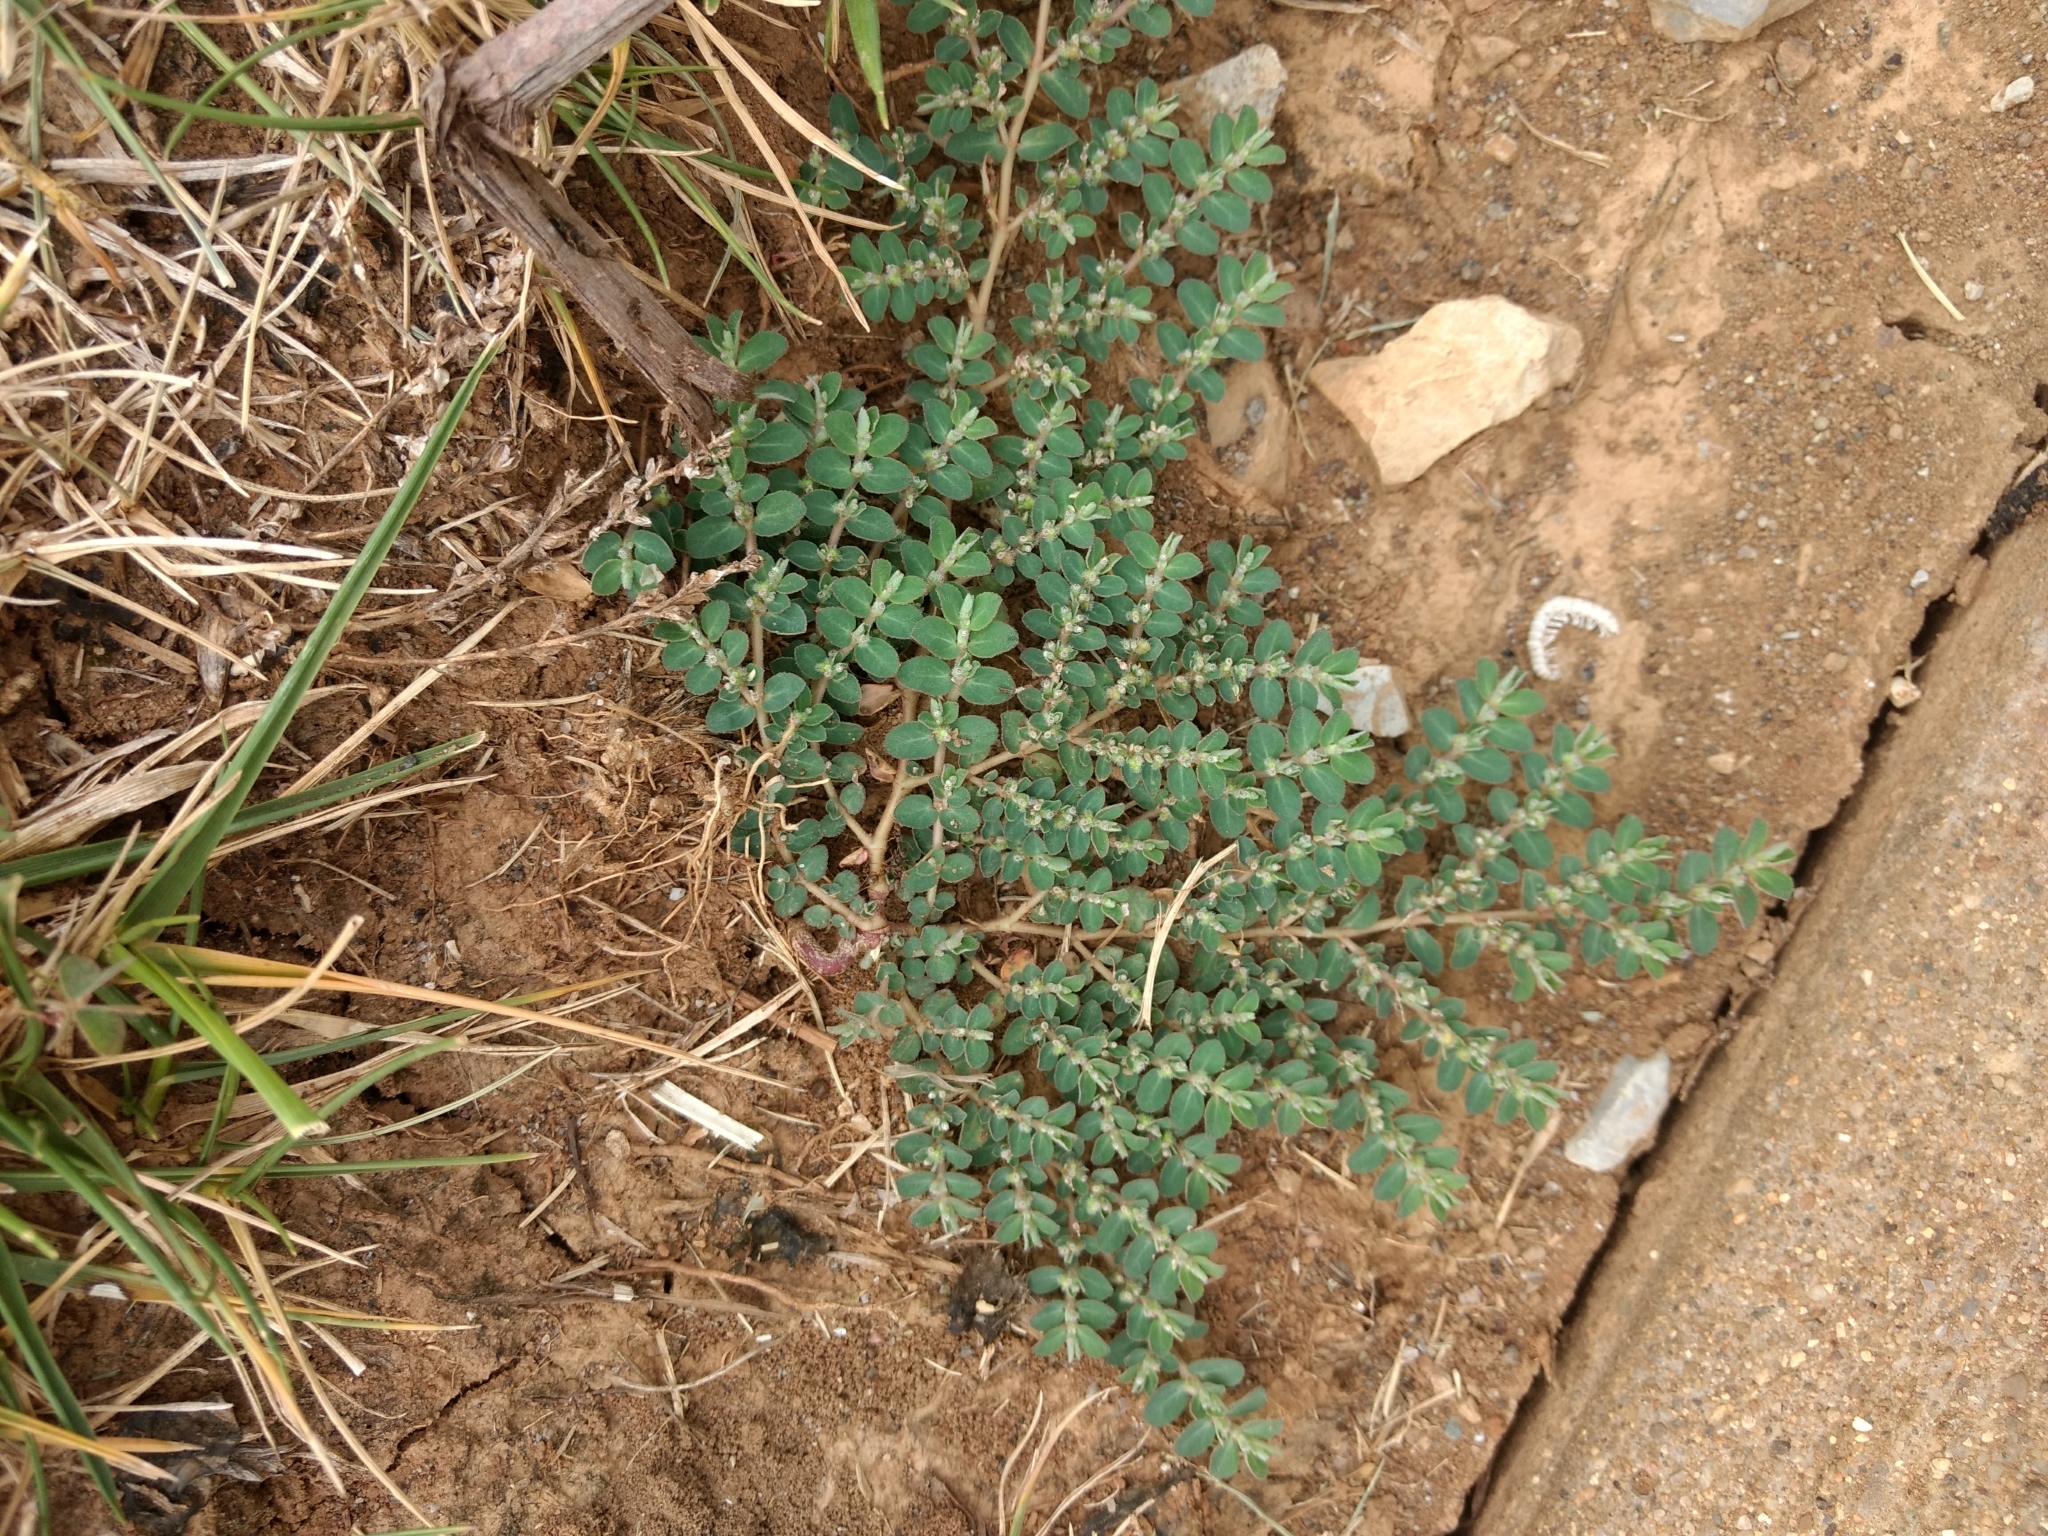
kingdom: Plantae
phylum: Tracheophyta
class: Magnoliopsida
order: Malpighiales
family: Euphorbiaceae
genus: Euphorbia
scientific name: Euphorbia prostrata
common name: Prostrate sandmat
